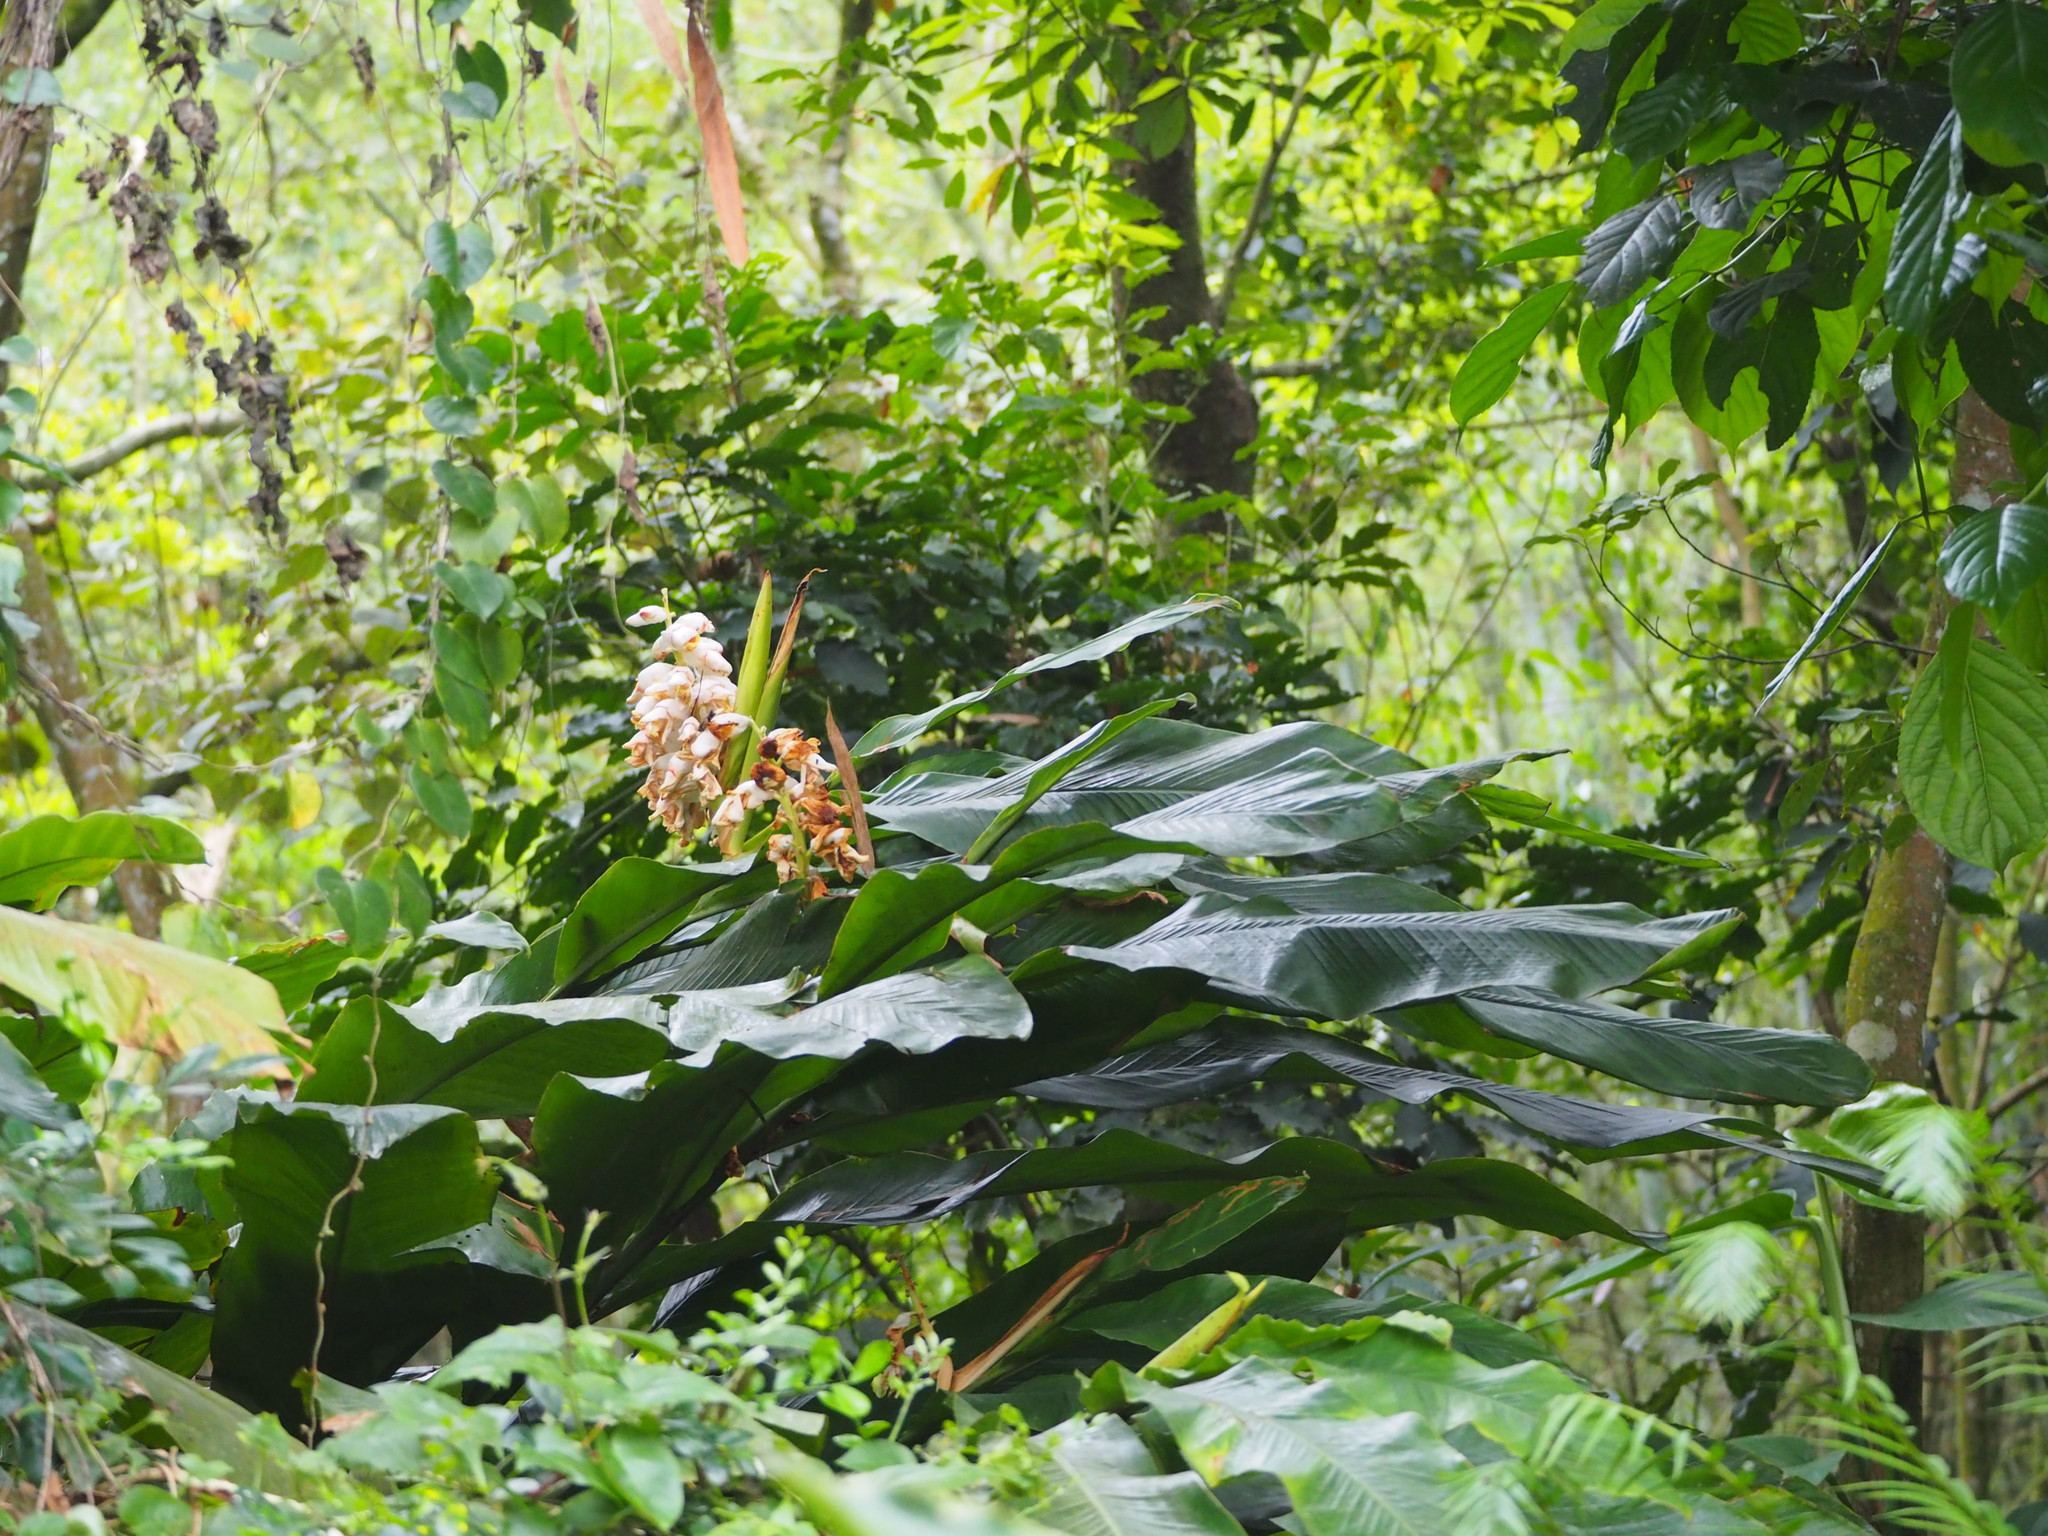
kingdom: Plantae
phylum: Tracheophyta
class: Liliopsida
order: Zingiberales
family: Zingiberaceae
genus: Alpinia
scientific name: Alpinia uraiensis
